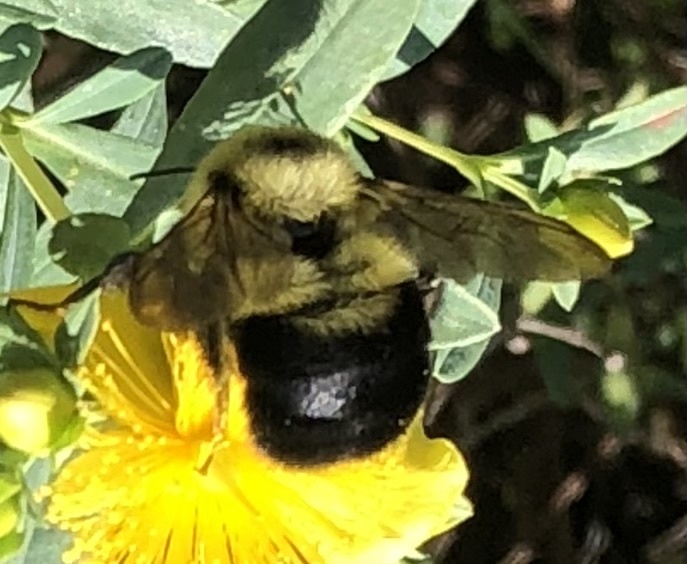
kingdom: Animalia
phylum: Arthropoda
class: Insecta
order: Hymenoptera
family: Apidae
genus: Bombus
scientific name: Bombus bimaculatus
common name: Two-spotted bumble bee
